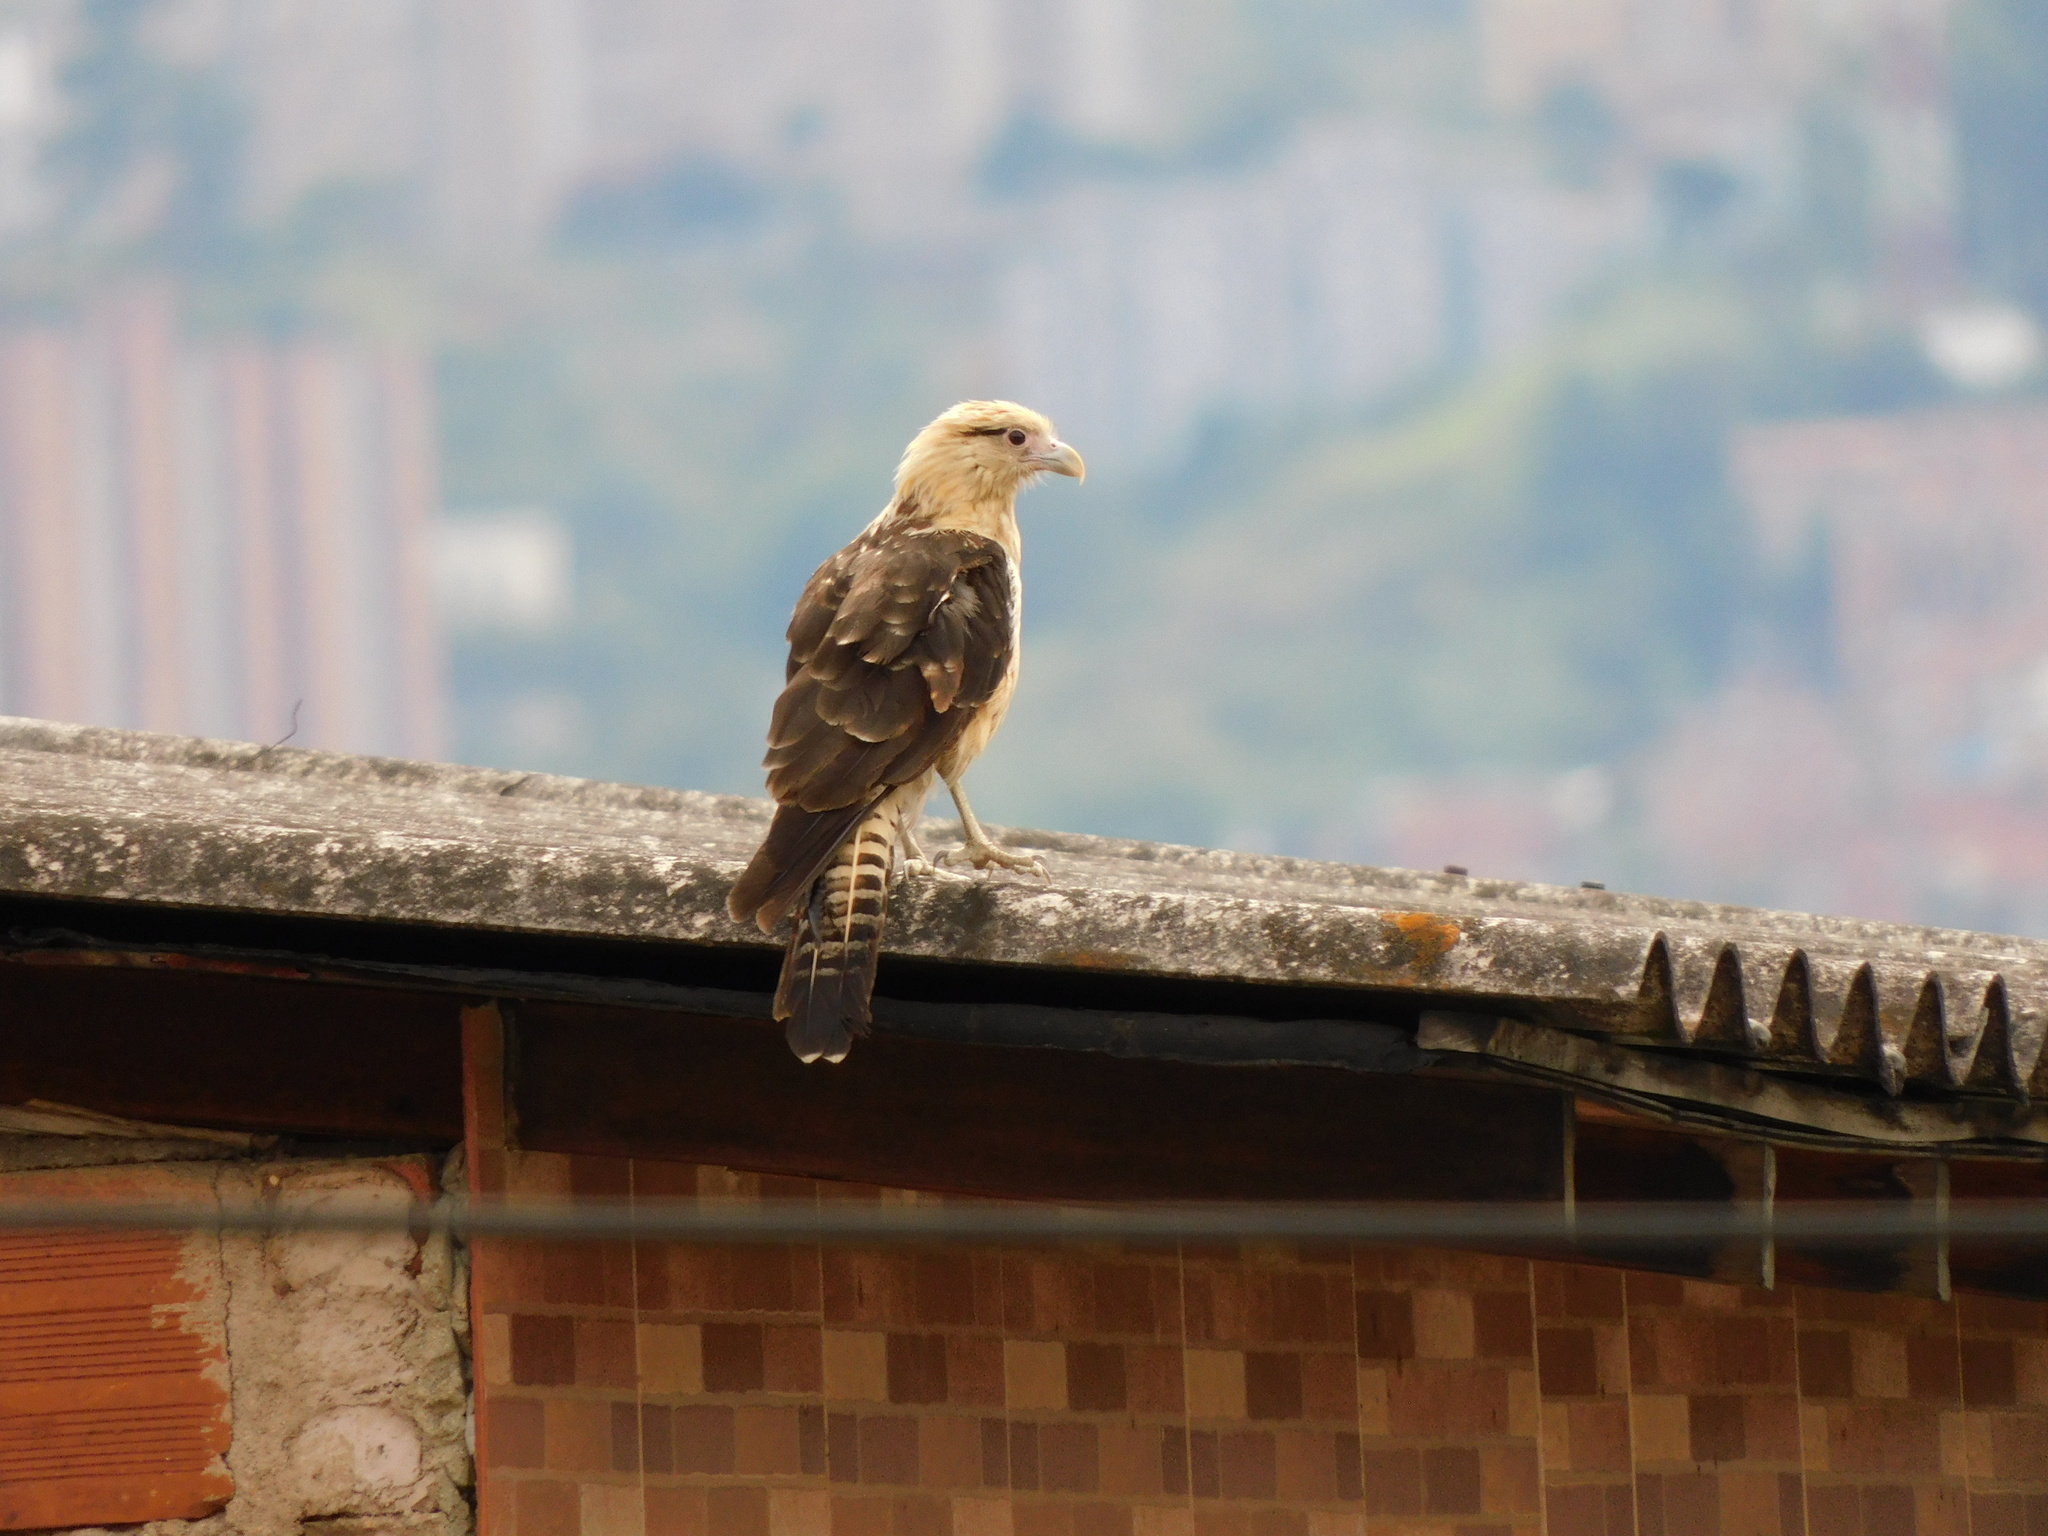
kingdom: Animalia
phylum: Chordata
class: Aves
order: Falconiformes
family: Falconidae
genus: Daptrius
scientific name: Daptrius
